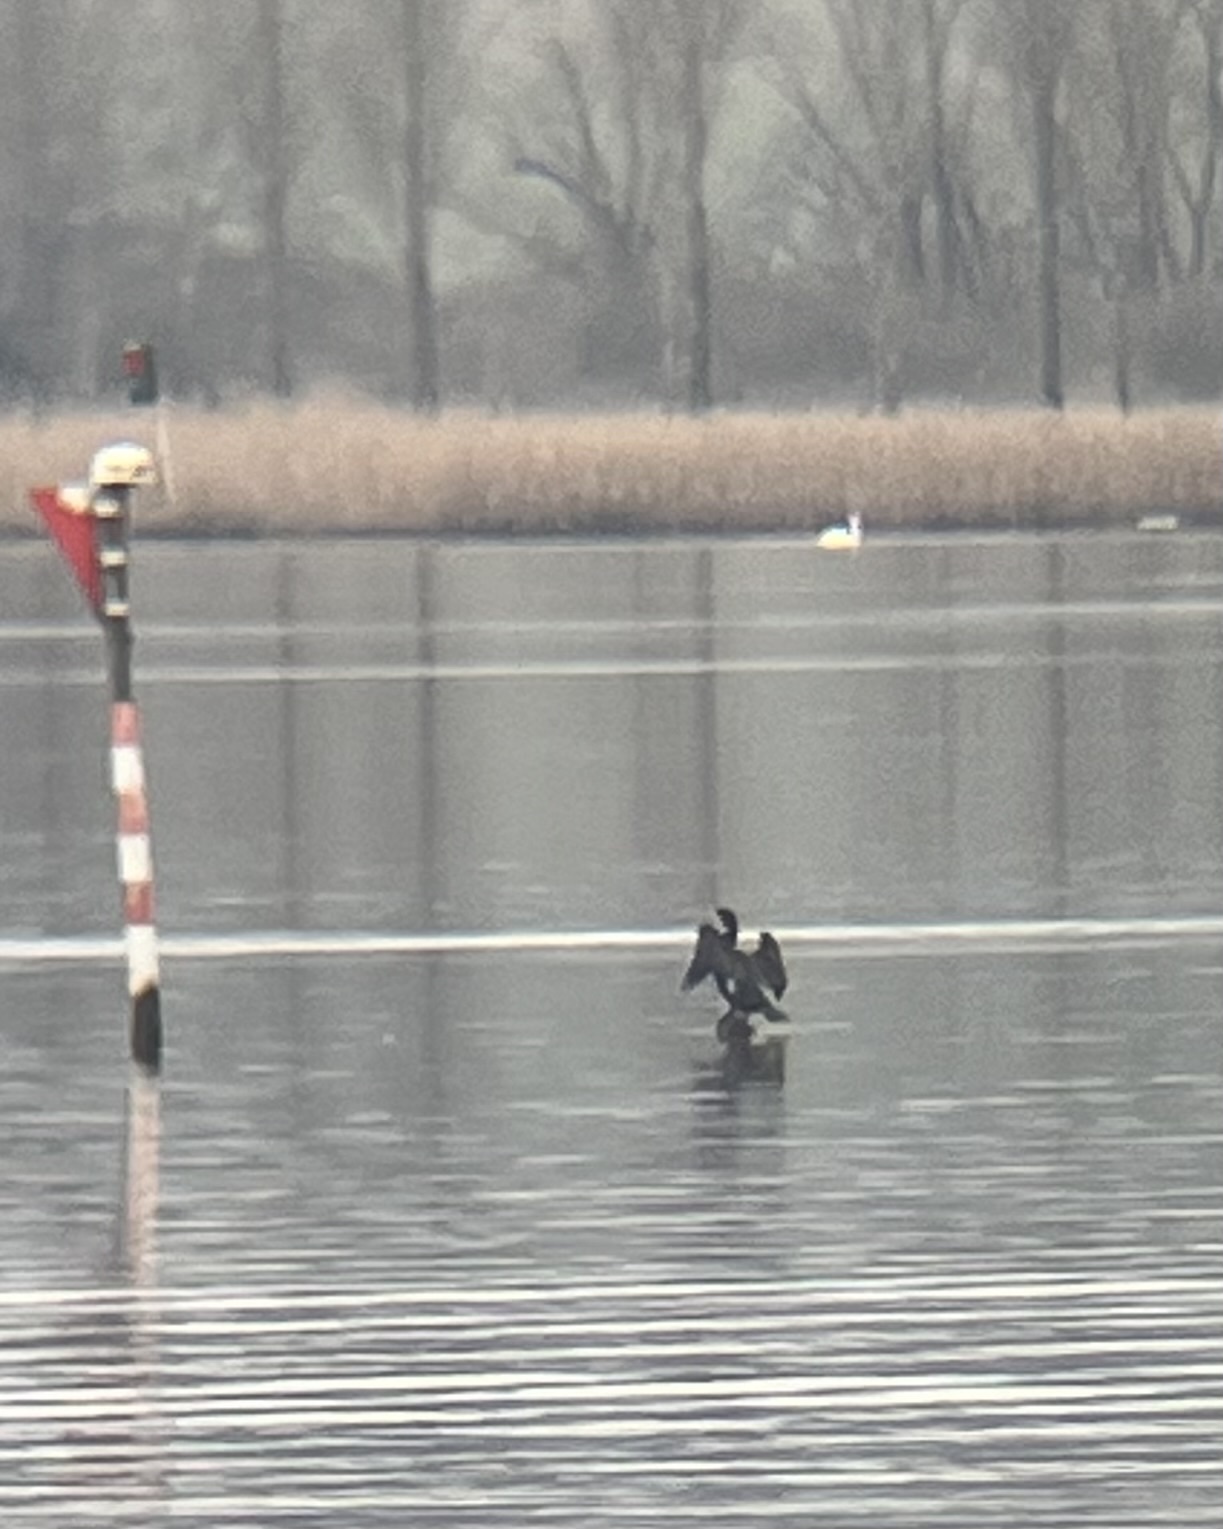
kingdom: Animalia
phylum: Chordata
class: Aves
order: Suliformes
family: Phalacrocoracidae
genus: Phalacrocorax
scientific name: Phalacrocorax carbo
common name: Great cormorant
